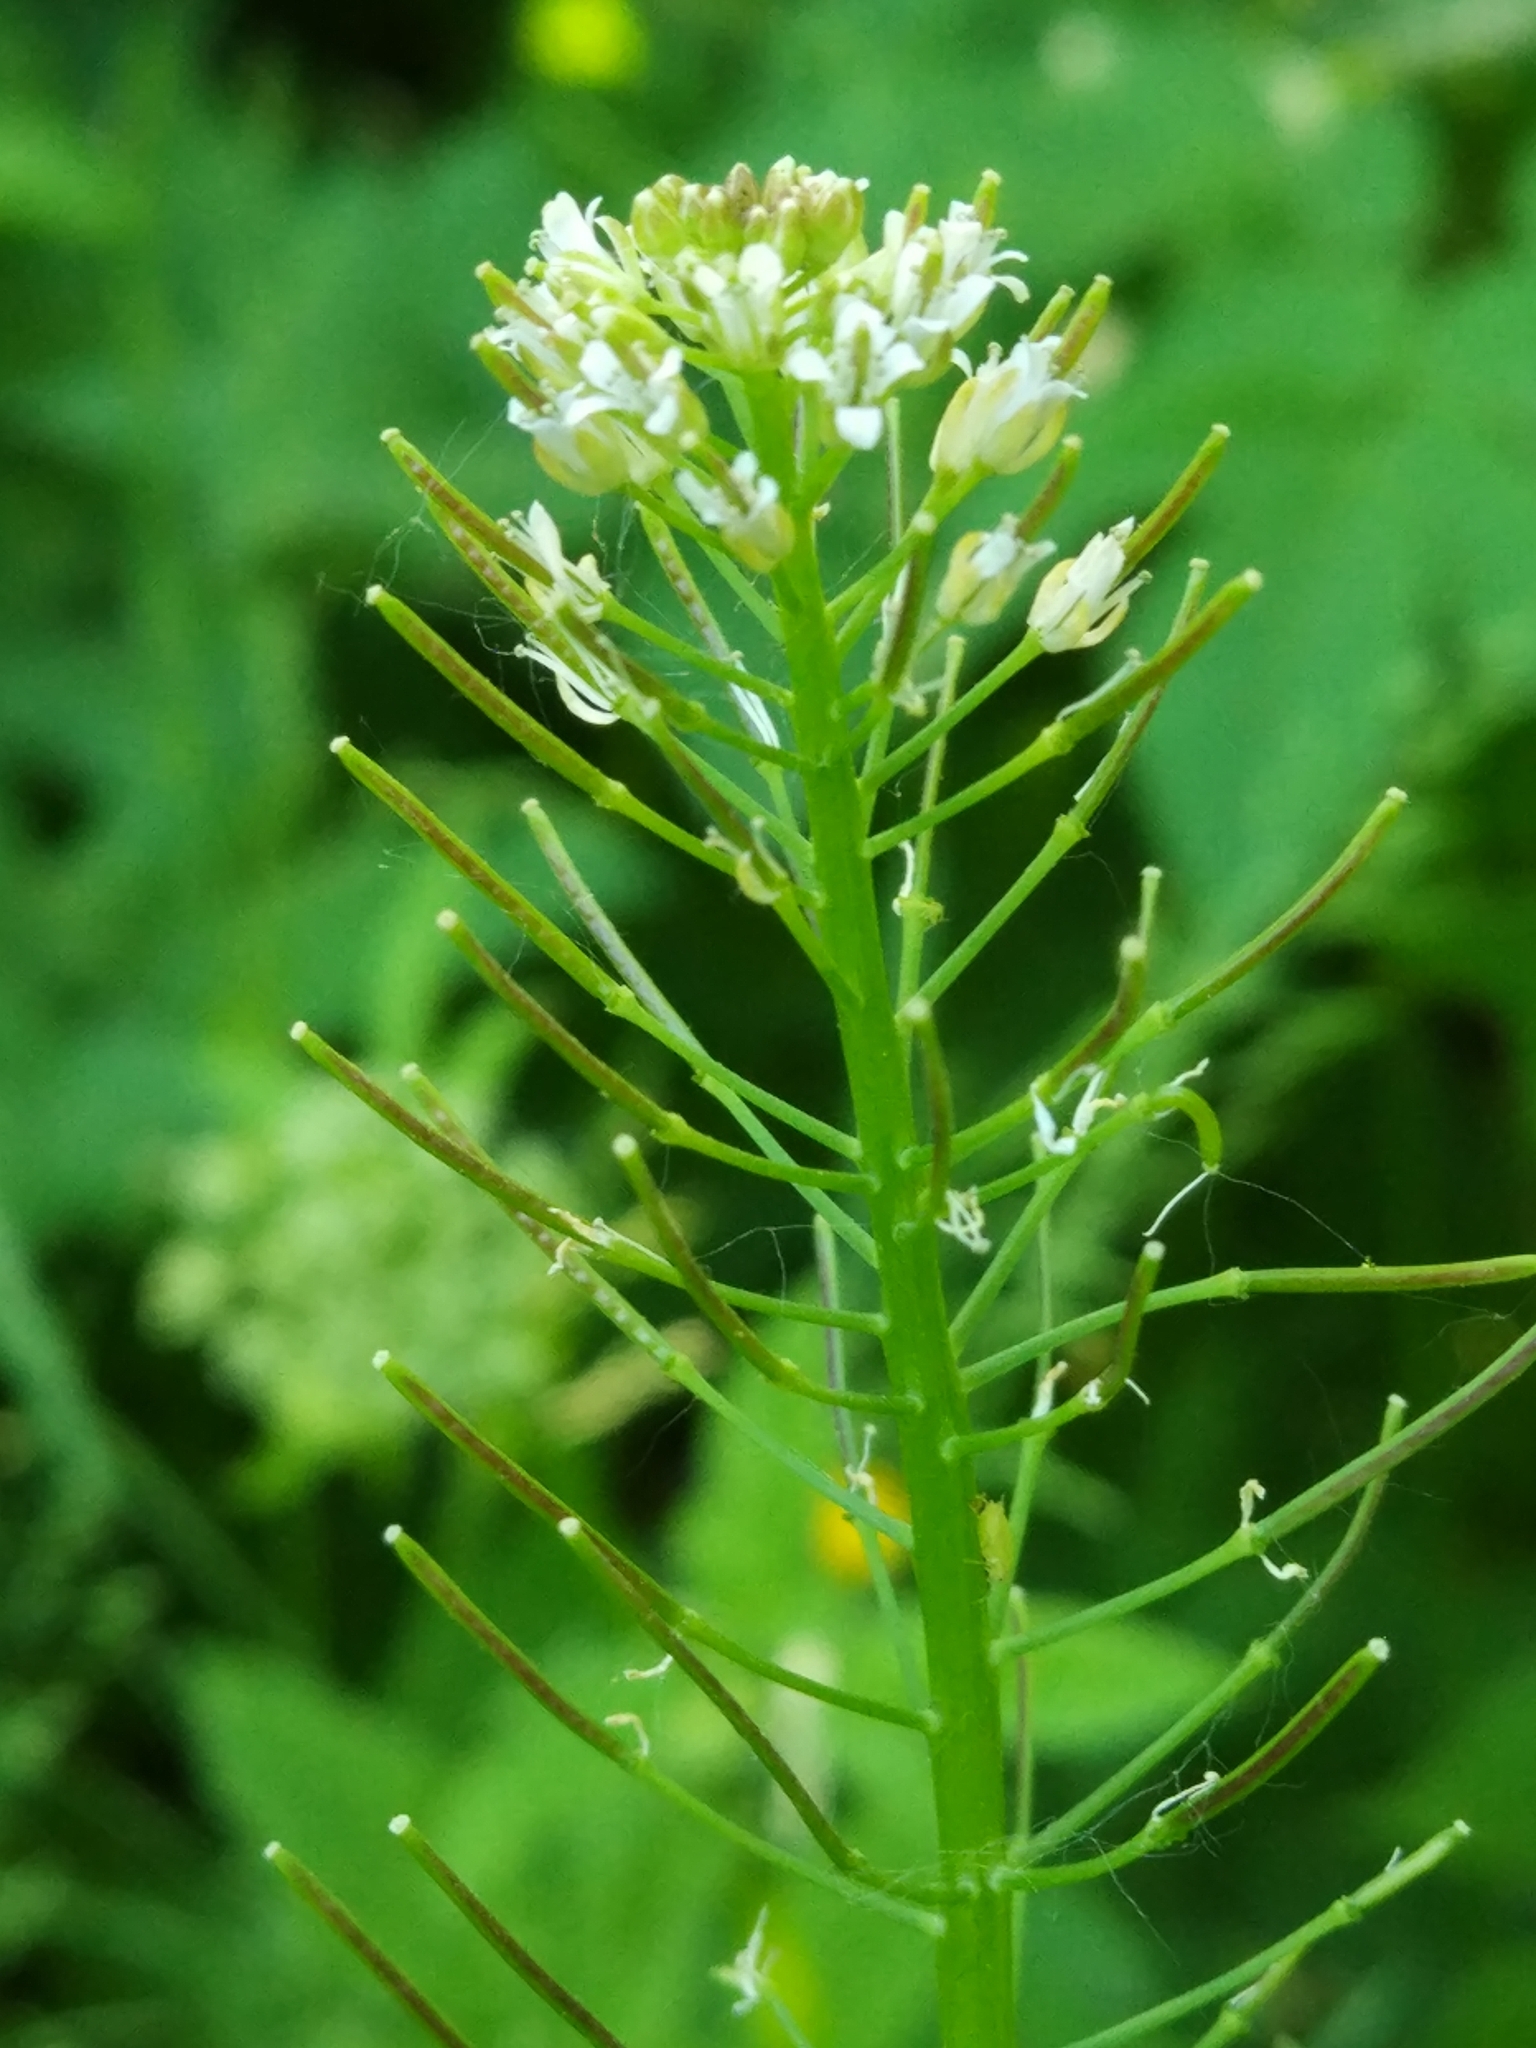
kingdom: Plantae
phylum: Tracheophyta
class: Magnoliopsida
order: Brassicales
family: Brassicaceae
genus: Cardamine
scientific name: Cardamine impatiens
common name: Narrow-leaved bitter-cress
